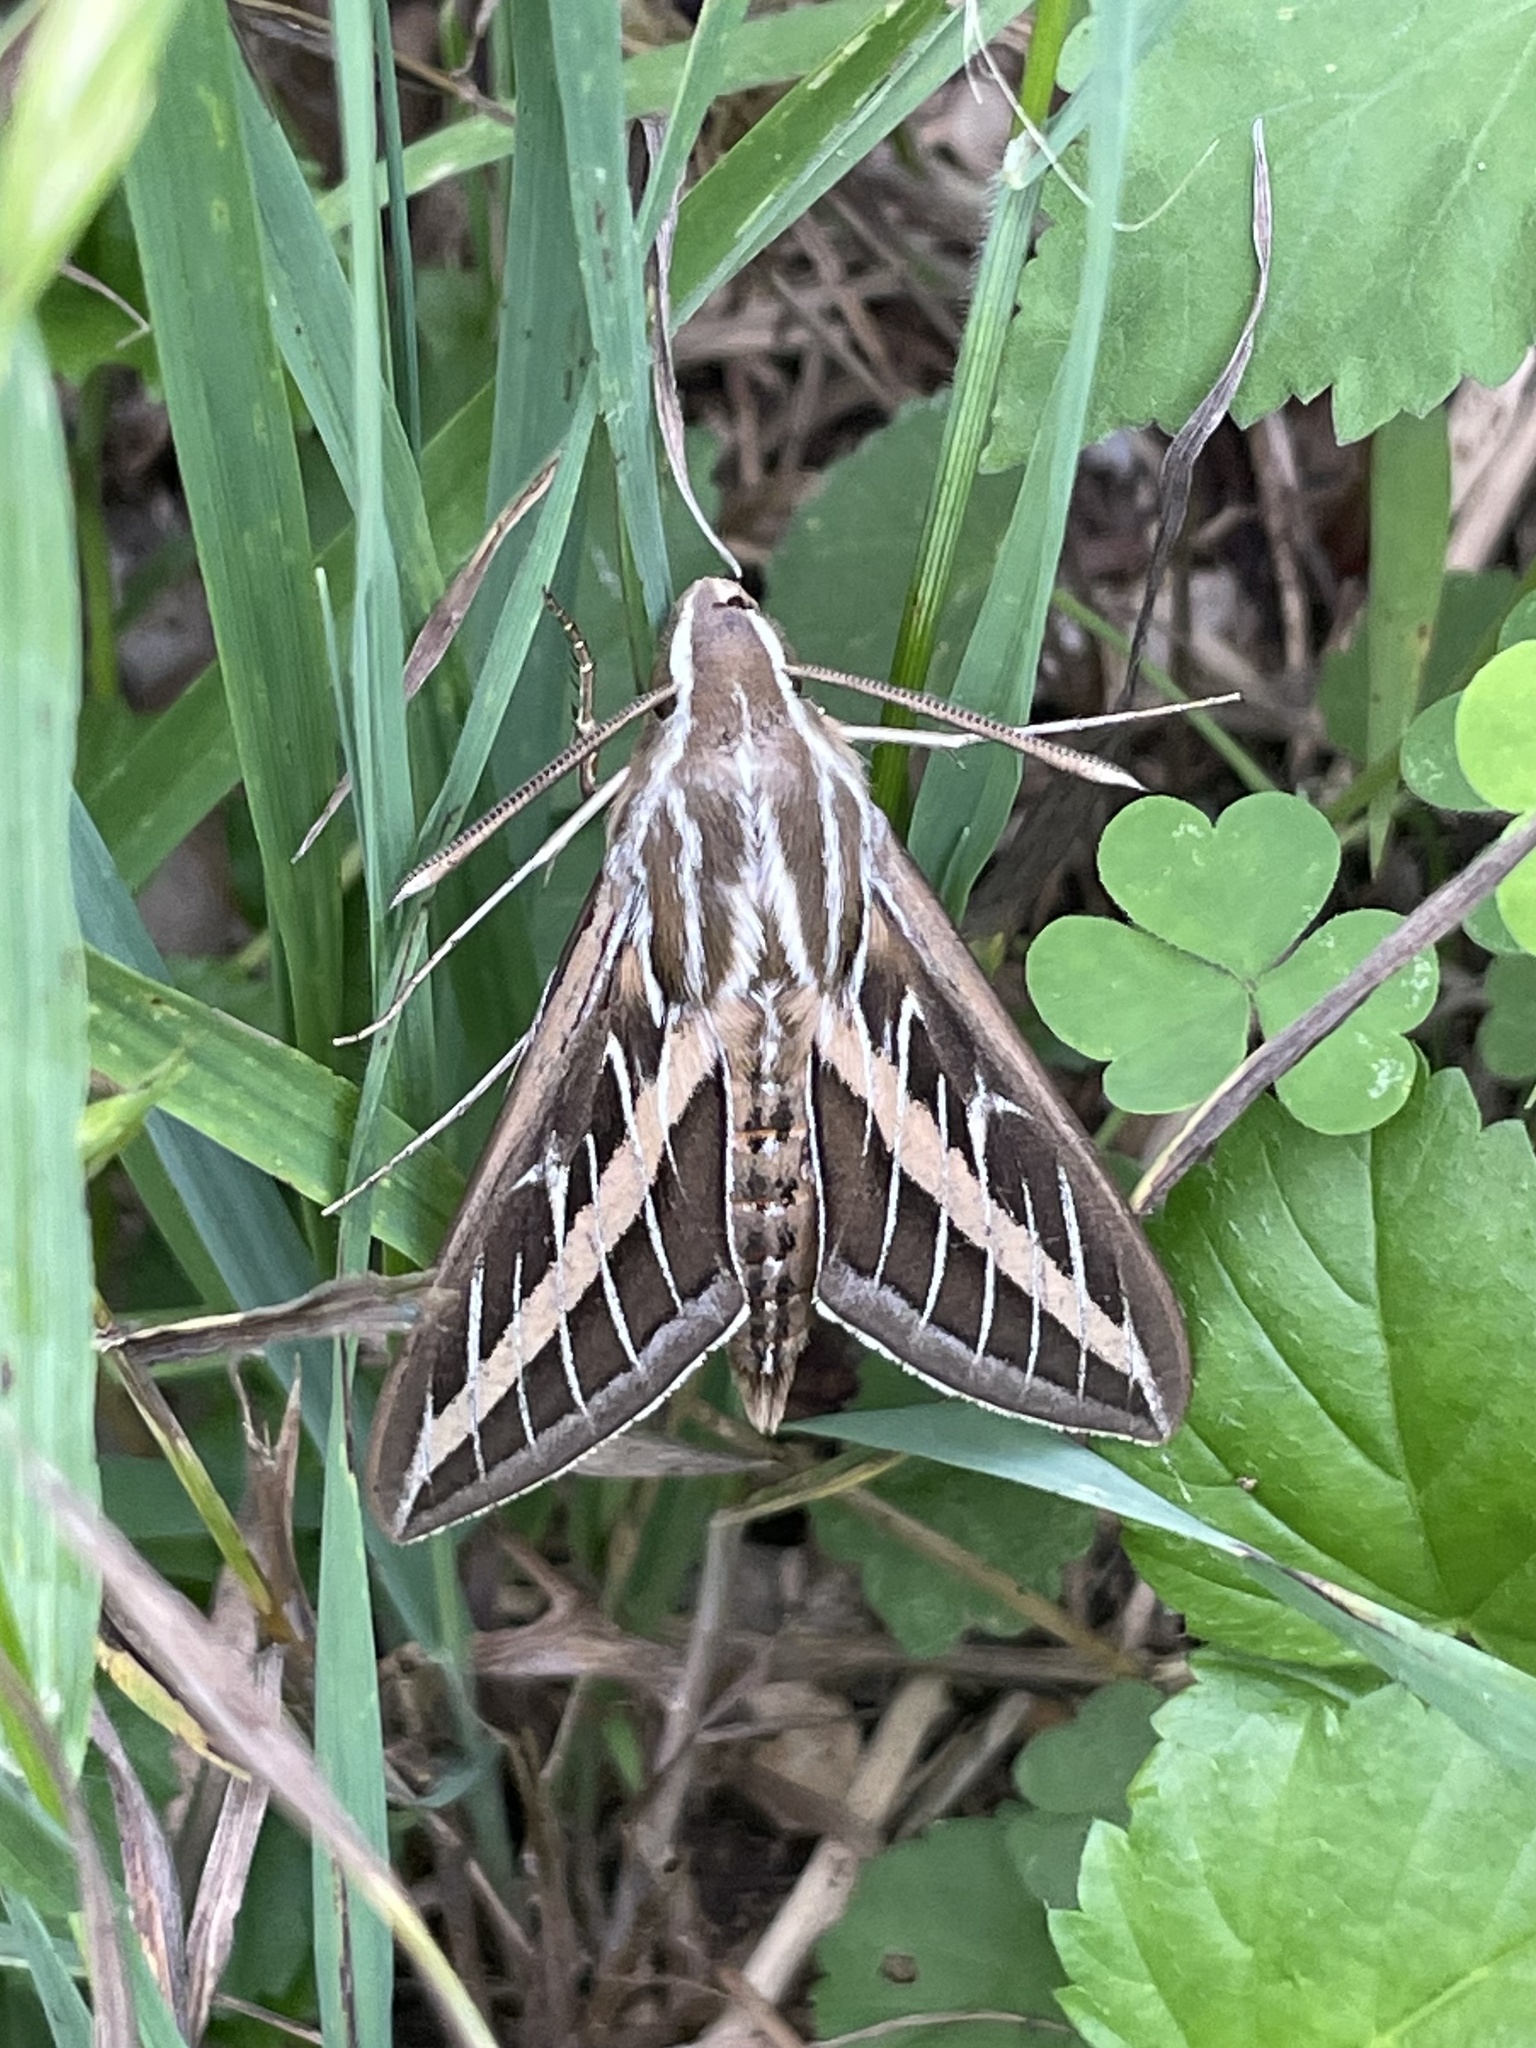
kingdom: Animalia
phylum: Arthropoda
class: Insecta
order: Lepidoptera
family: Sphingidae
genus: Hyles
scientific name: Hyles lineata
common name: White-lined sphinx
